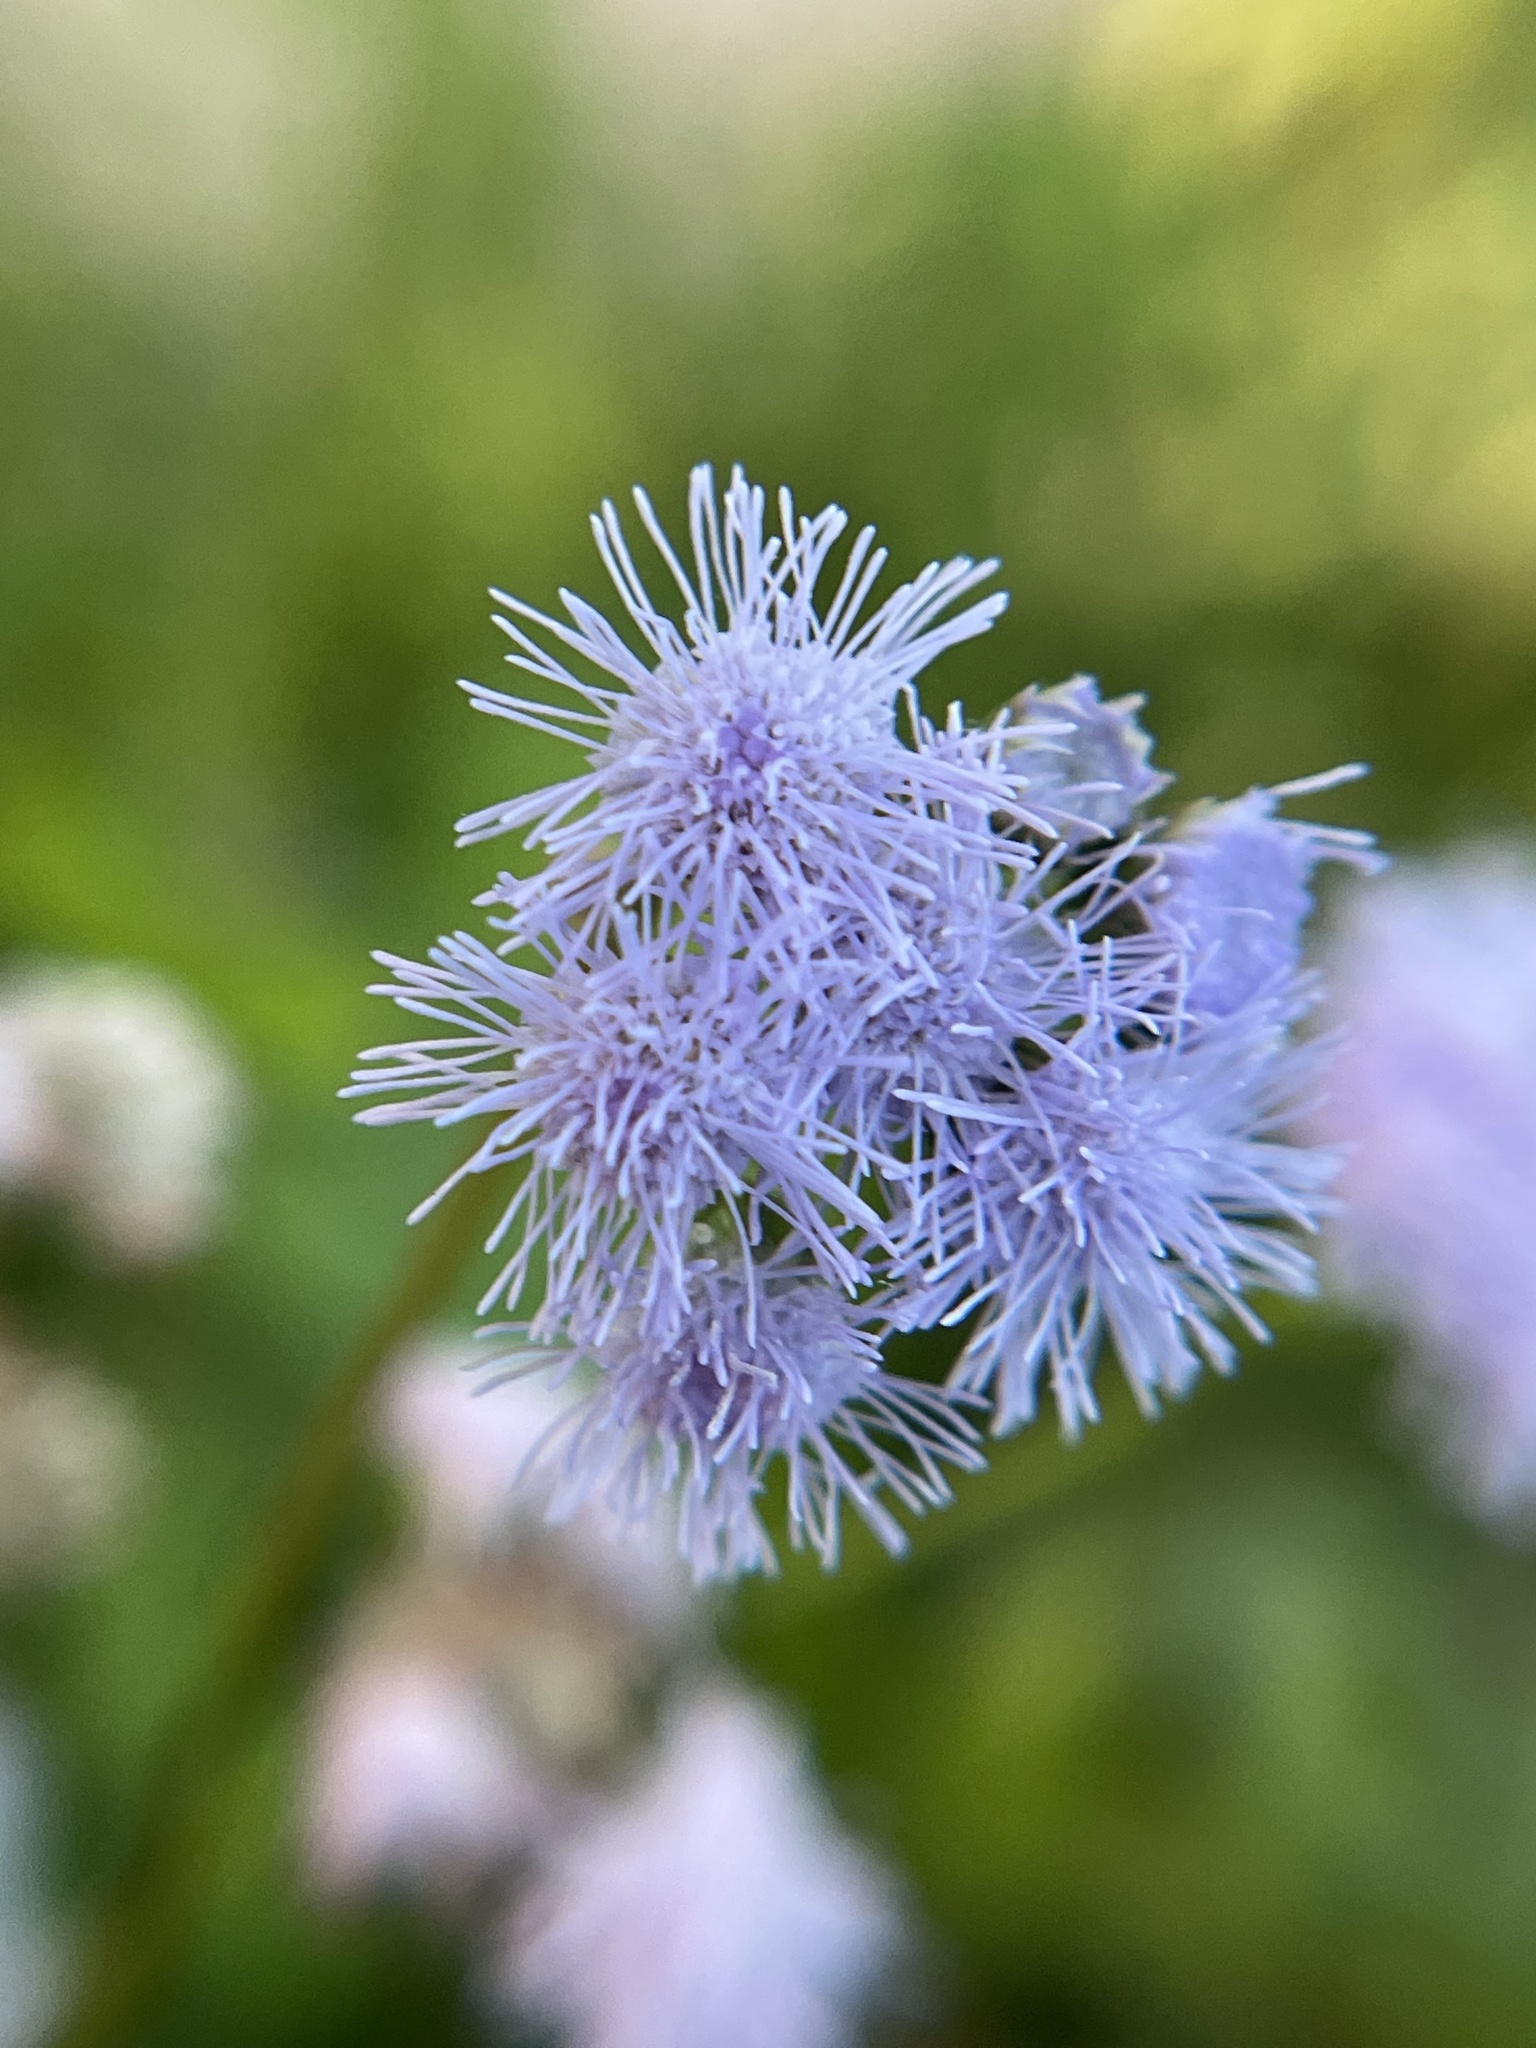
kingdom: Plantae
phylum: Tracheophyta
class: Magnoliopsida
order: Asterales
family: Asteraceae
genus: Ageratum
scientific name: Ageratum houstonianum
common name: Bluemink
